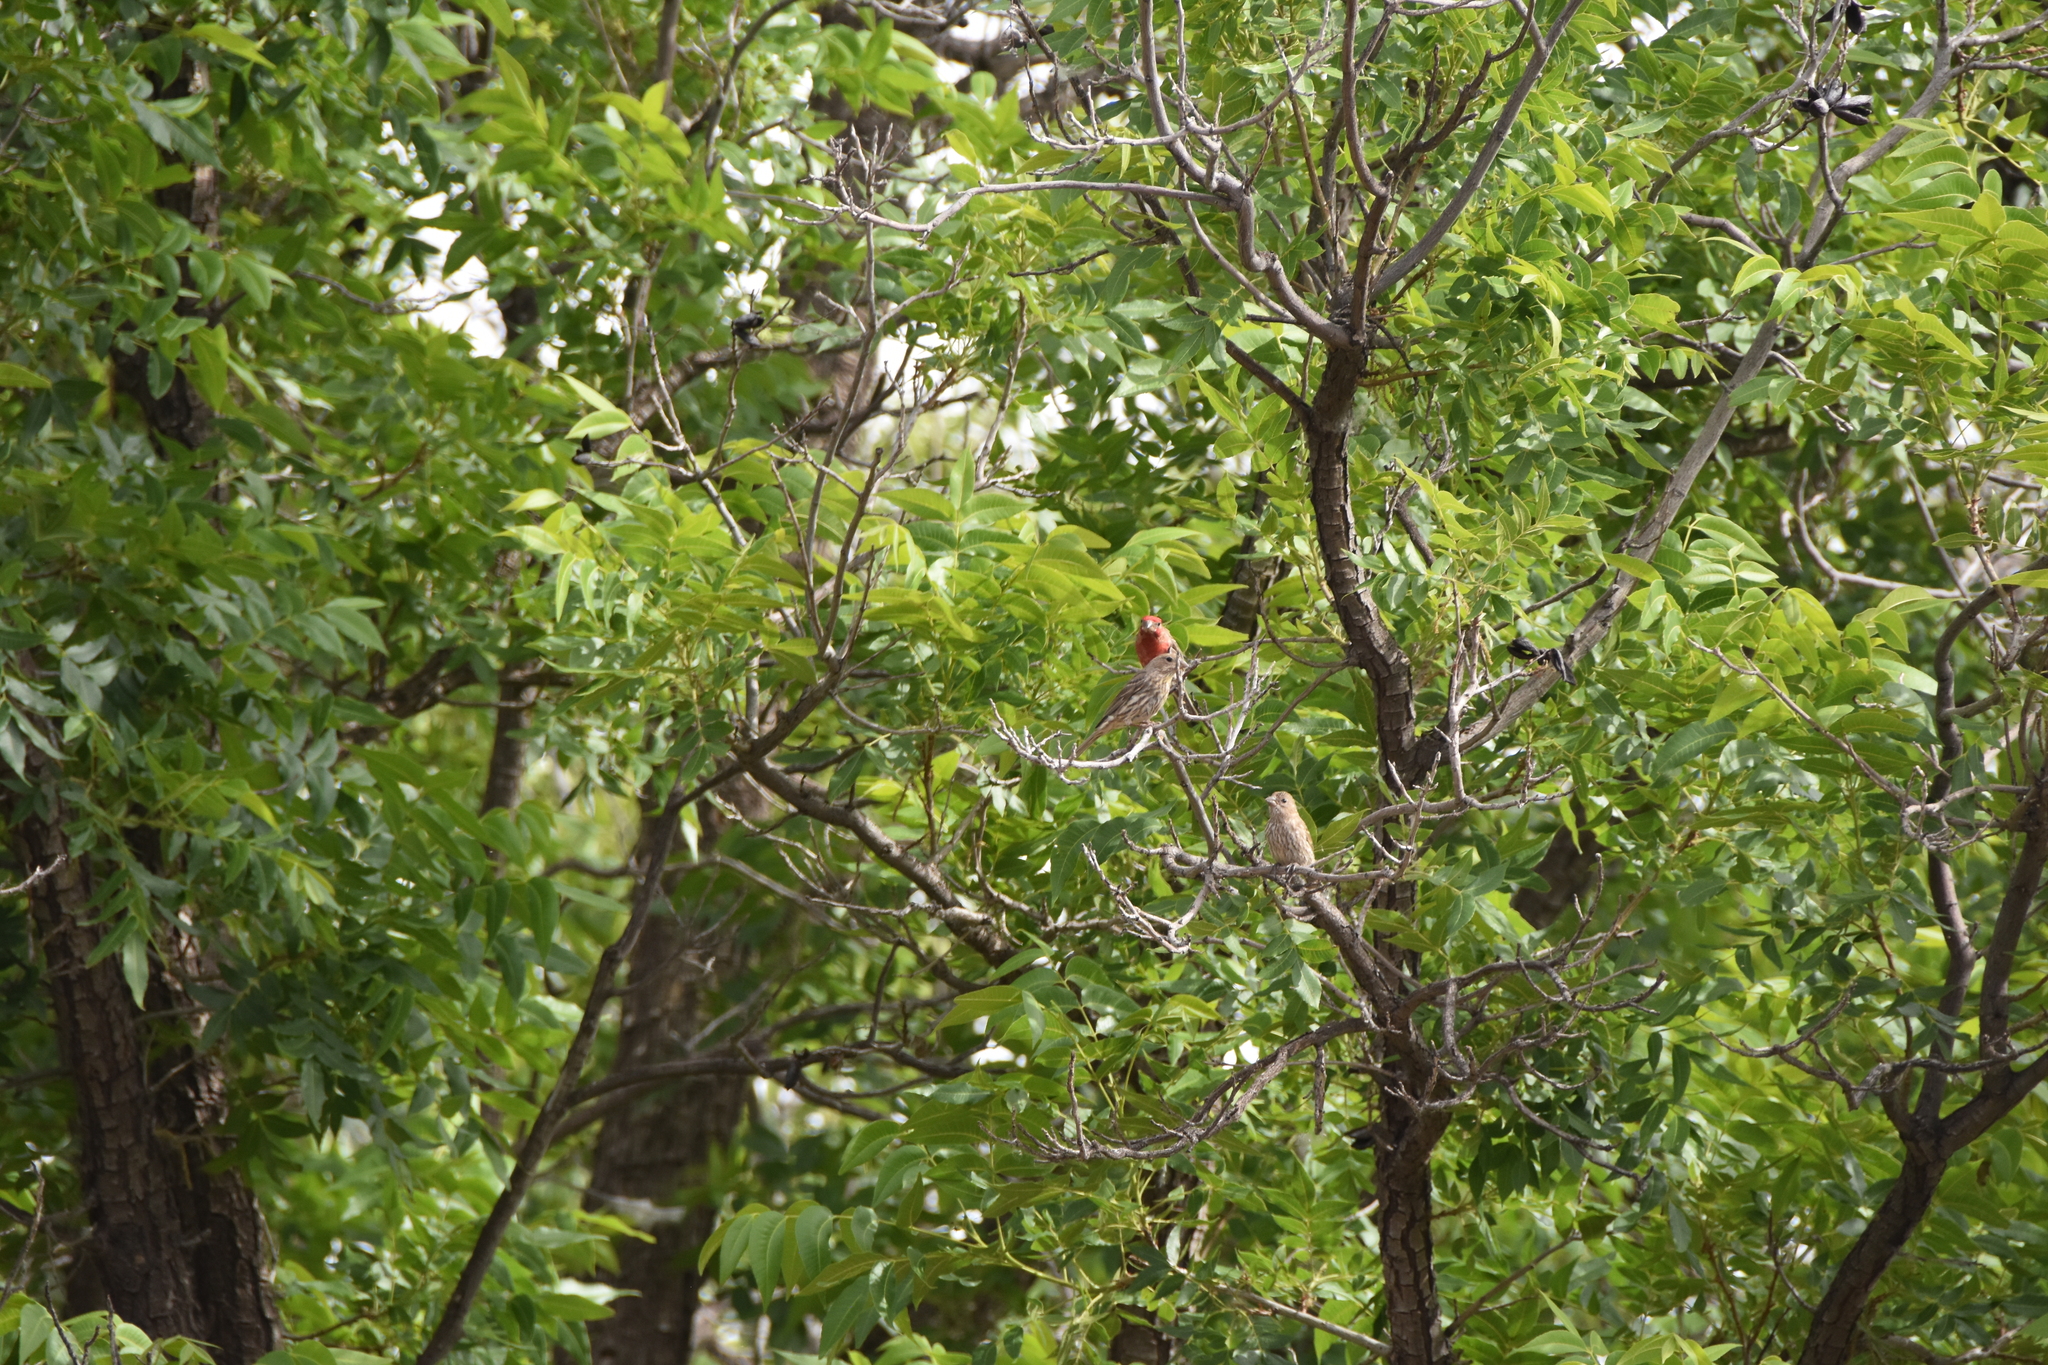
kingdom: Animalia
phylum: Chordata
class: Aves
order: Passeriformes
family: Fringillidae
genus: Haemorhous
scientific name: Haemorhous mexicanus
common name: House finch
